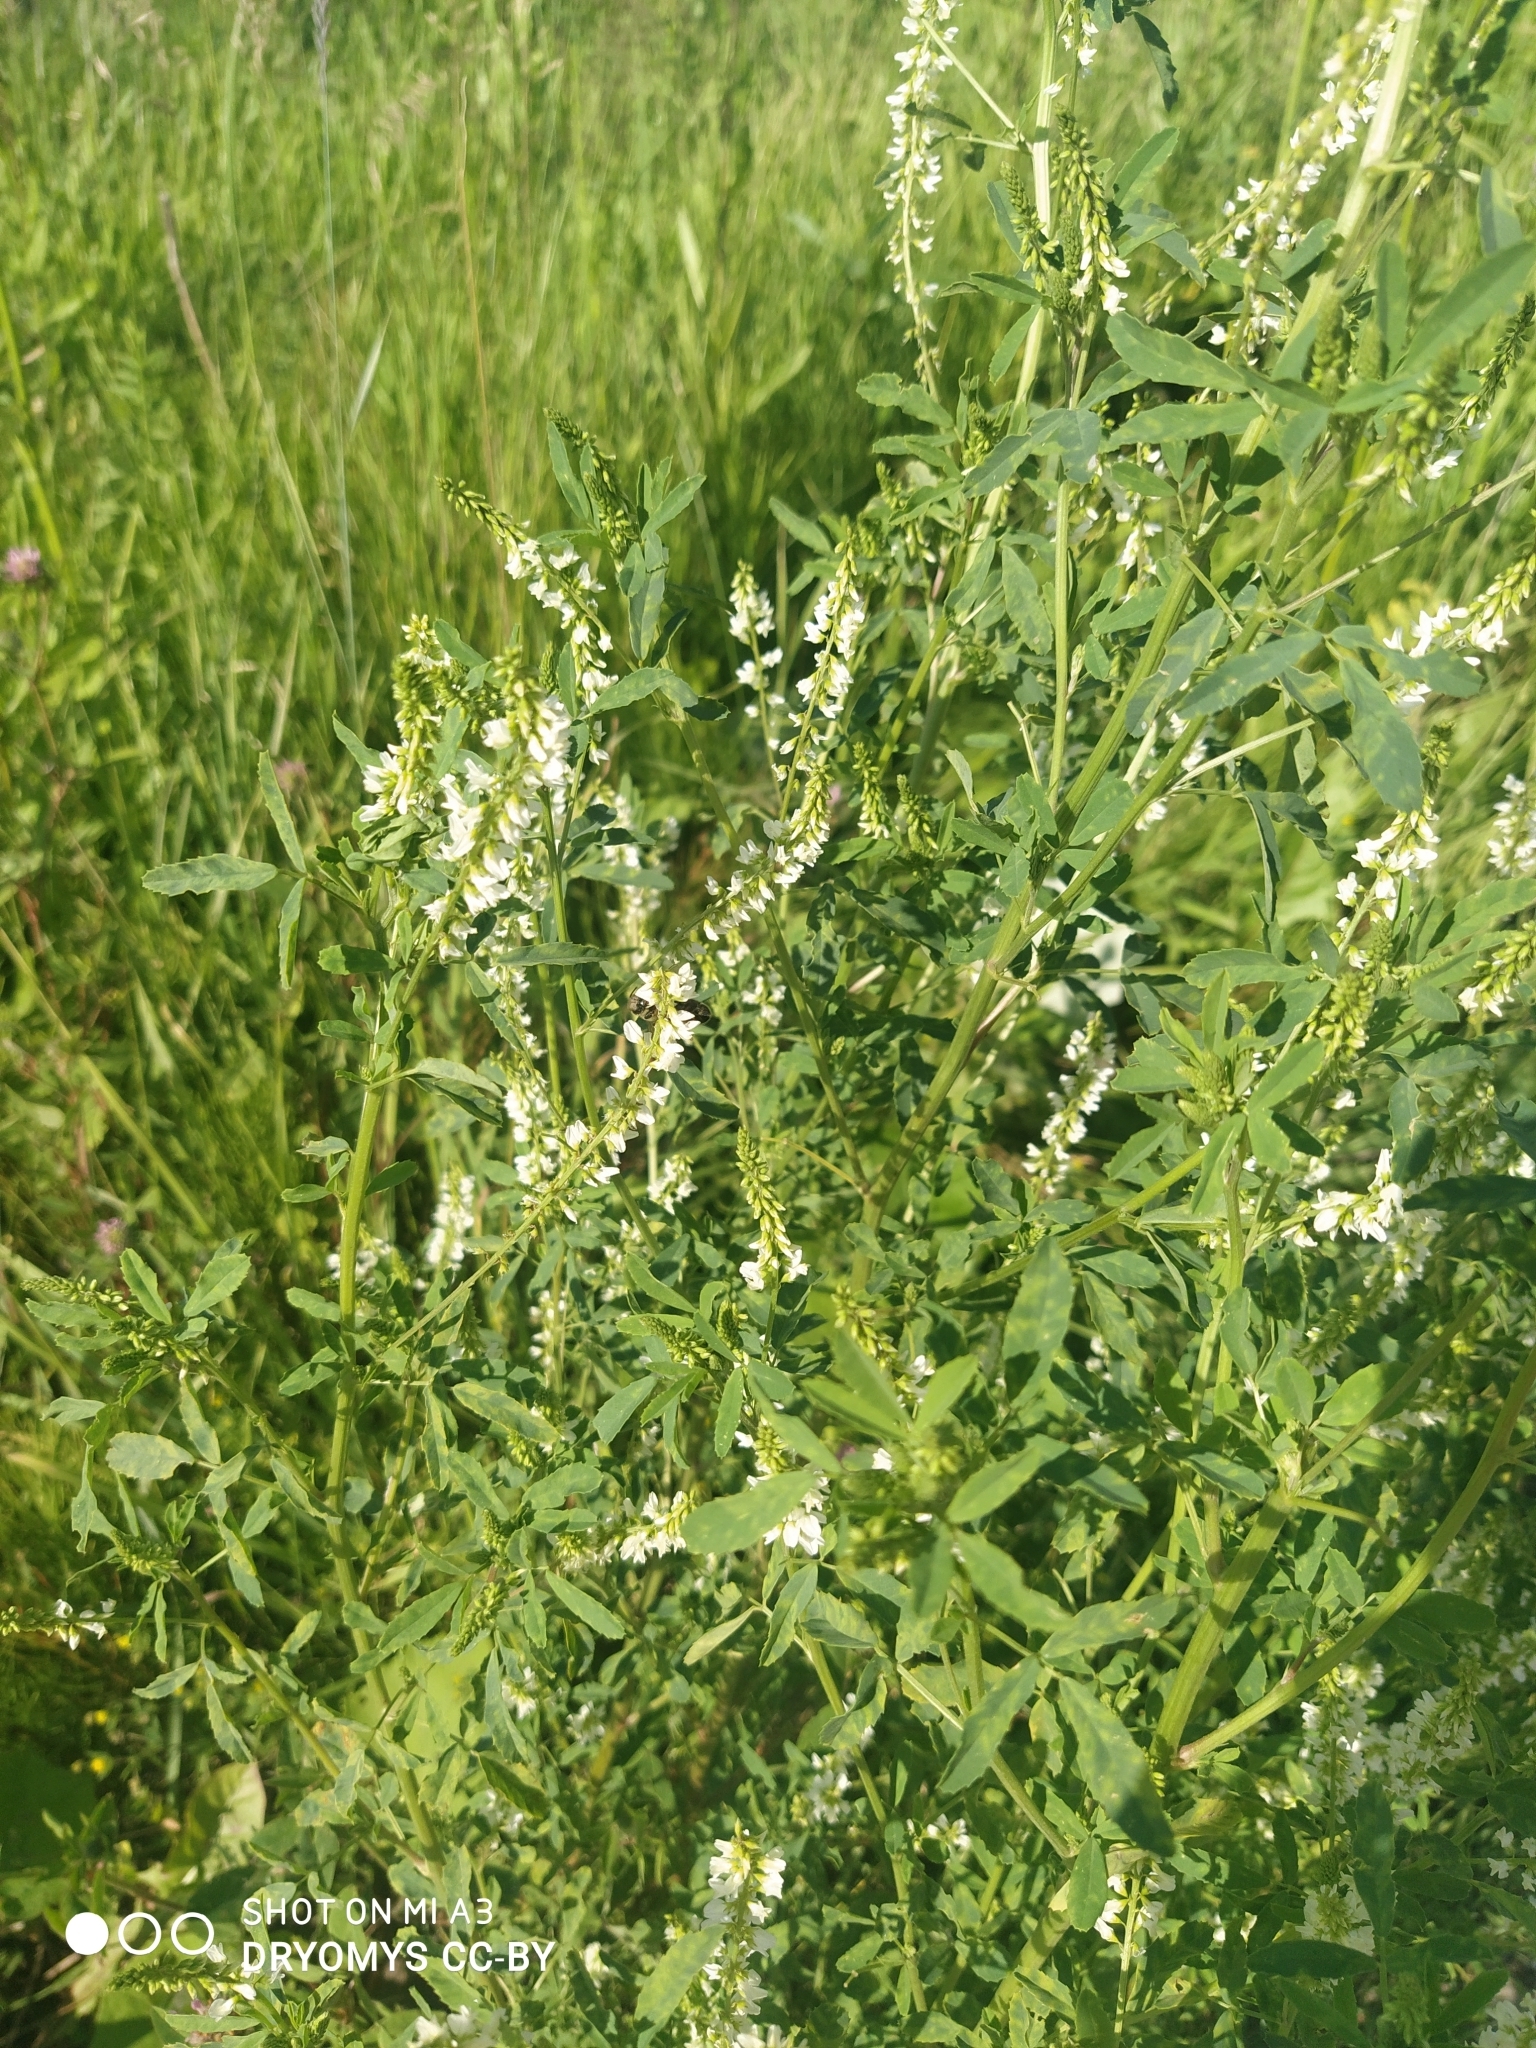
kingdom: Plantae
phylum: Tracheophyta
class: Magnoliopsida
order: Fabales
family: Fabaceae
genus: Melilotus
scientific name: Melilotus albus
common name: White melilot
